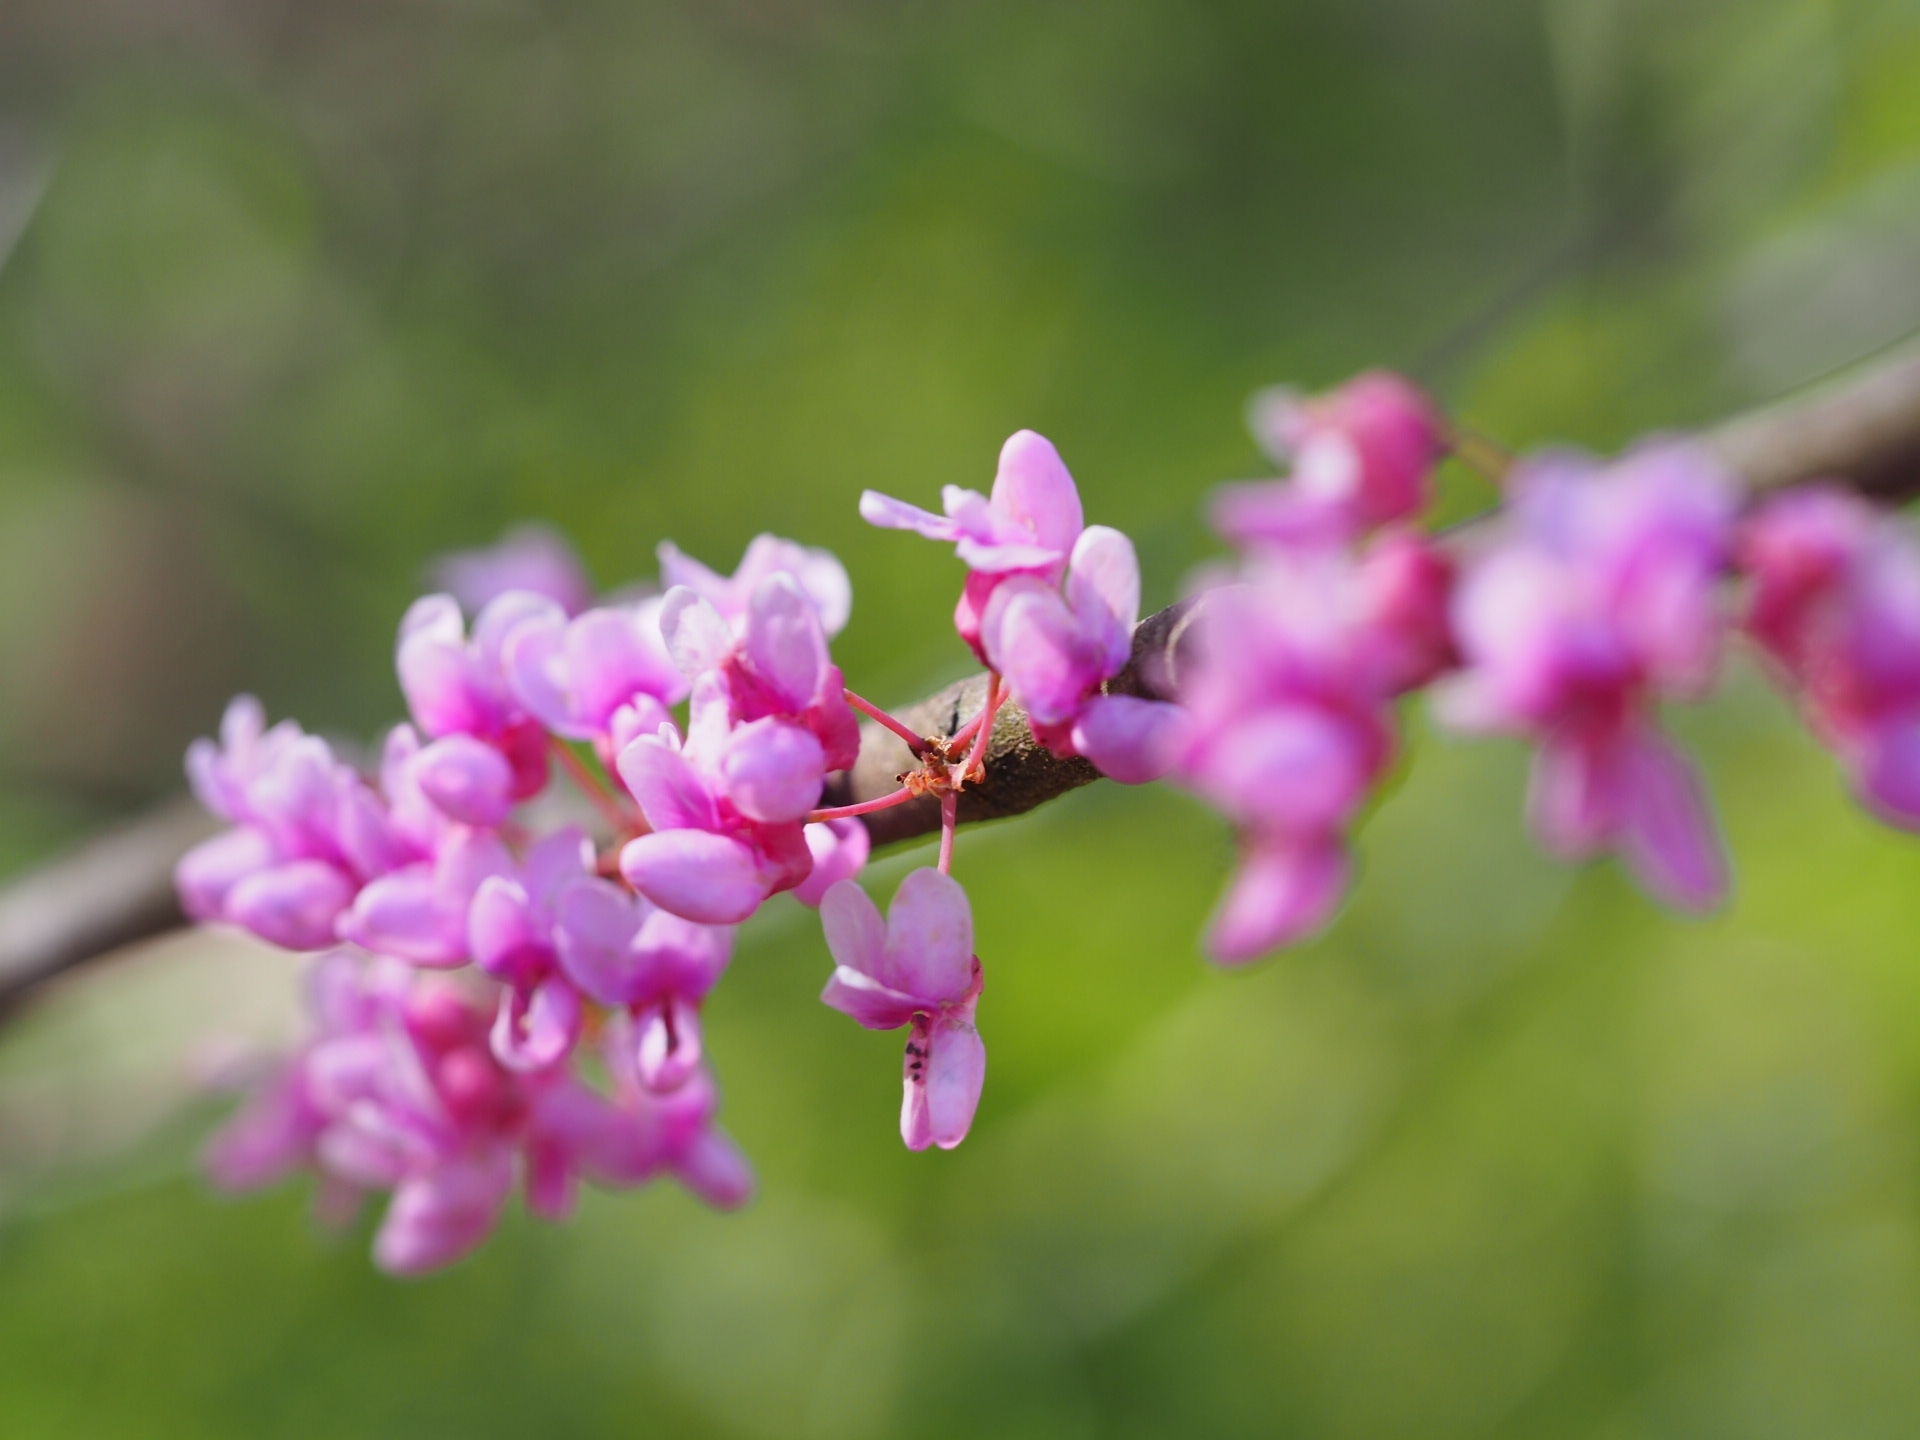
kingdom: Plantae
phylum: Tracheophyta
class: Magnoliopsida
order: Fabales
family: Fabaceae
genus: Cercis
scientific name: Cercis canadensis
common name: Eastern redbud
